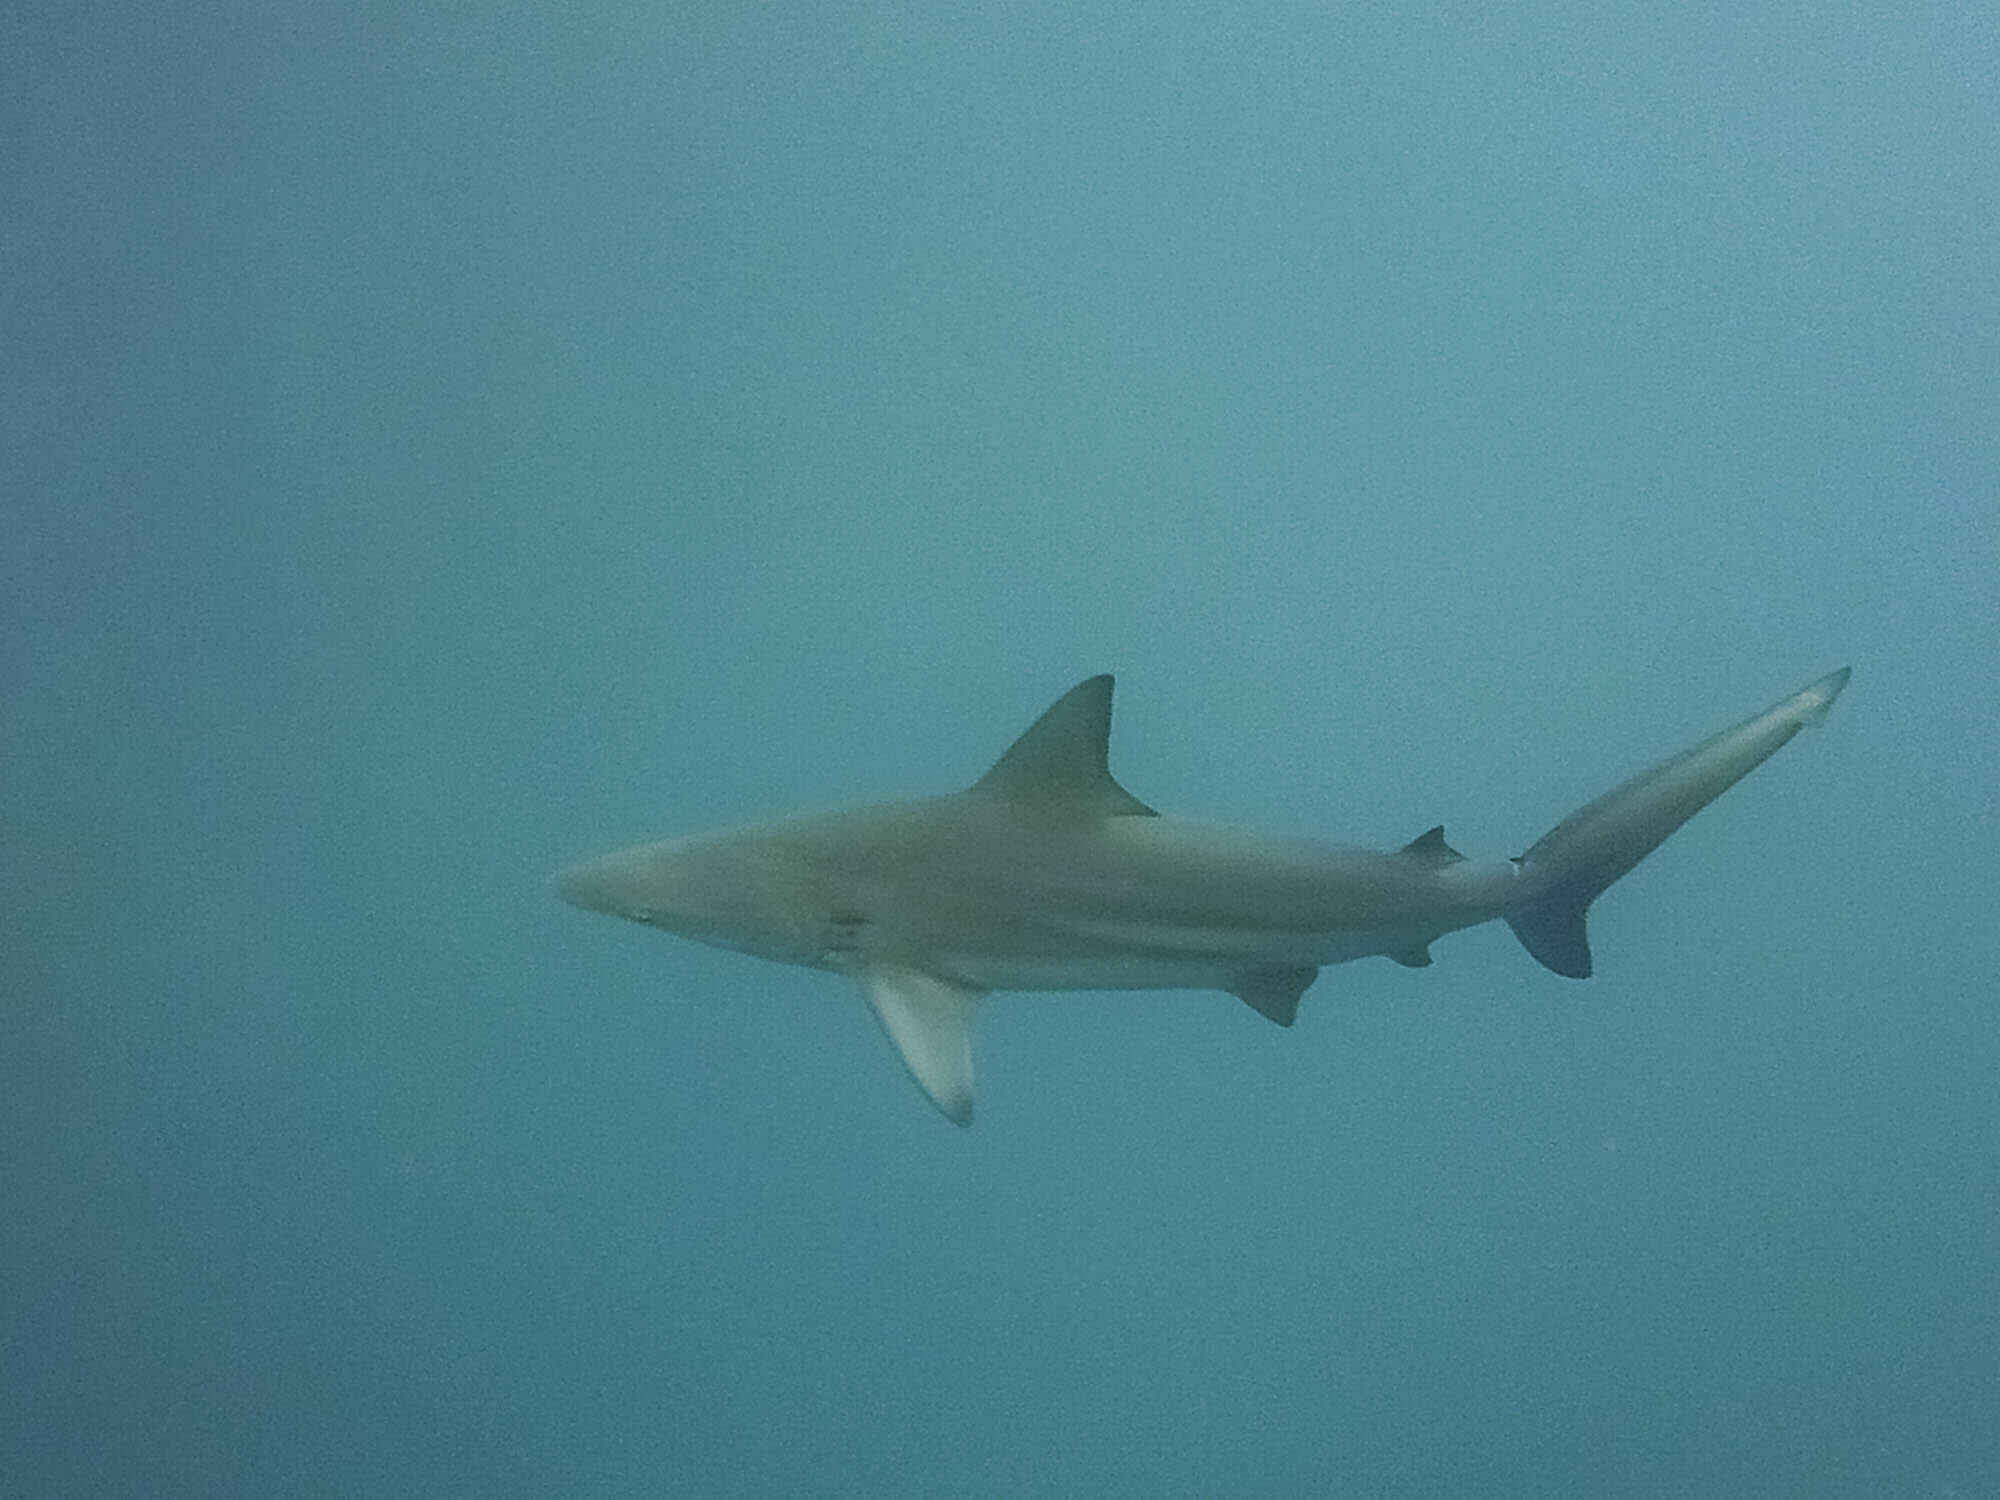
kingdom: Animalia
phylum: Chordata
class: Elasmobranchii
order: Carcharhiniformes
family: Carcharhinidae
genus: Carcharhinus
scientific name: Carcharhinus limbatus
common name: Blacktip shark
